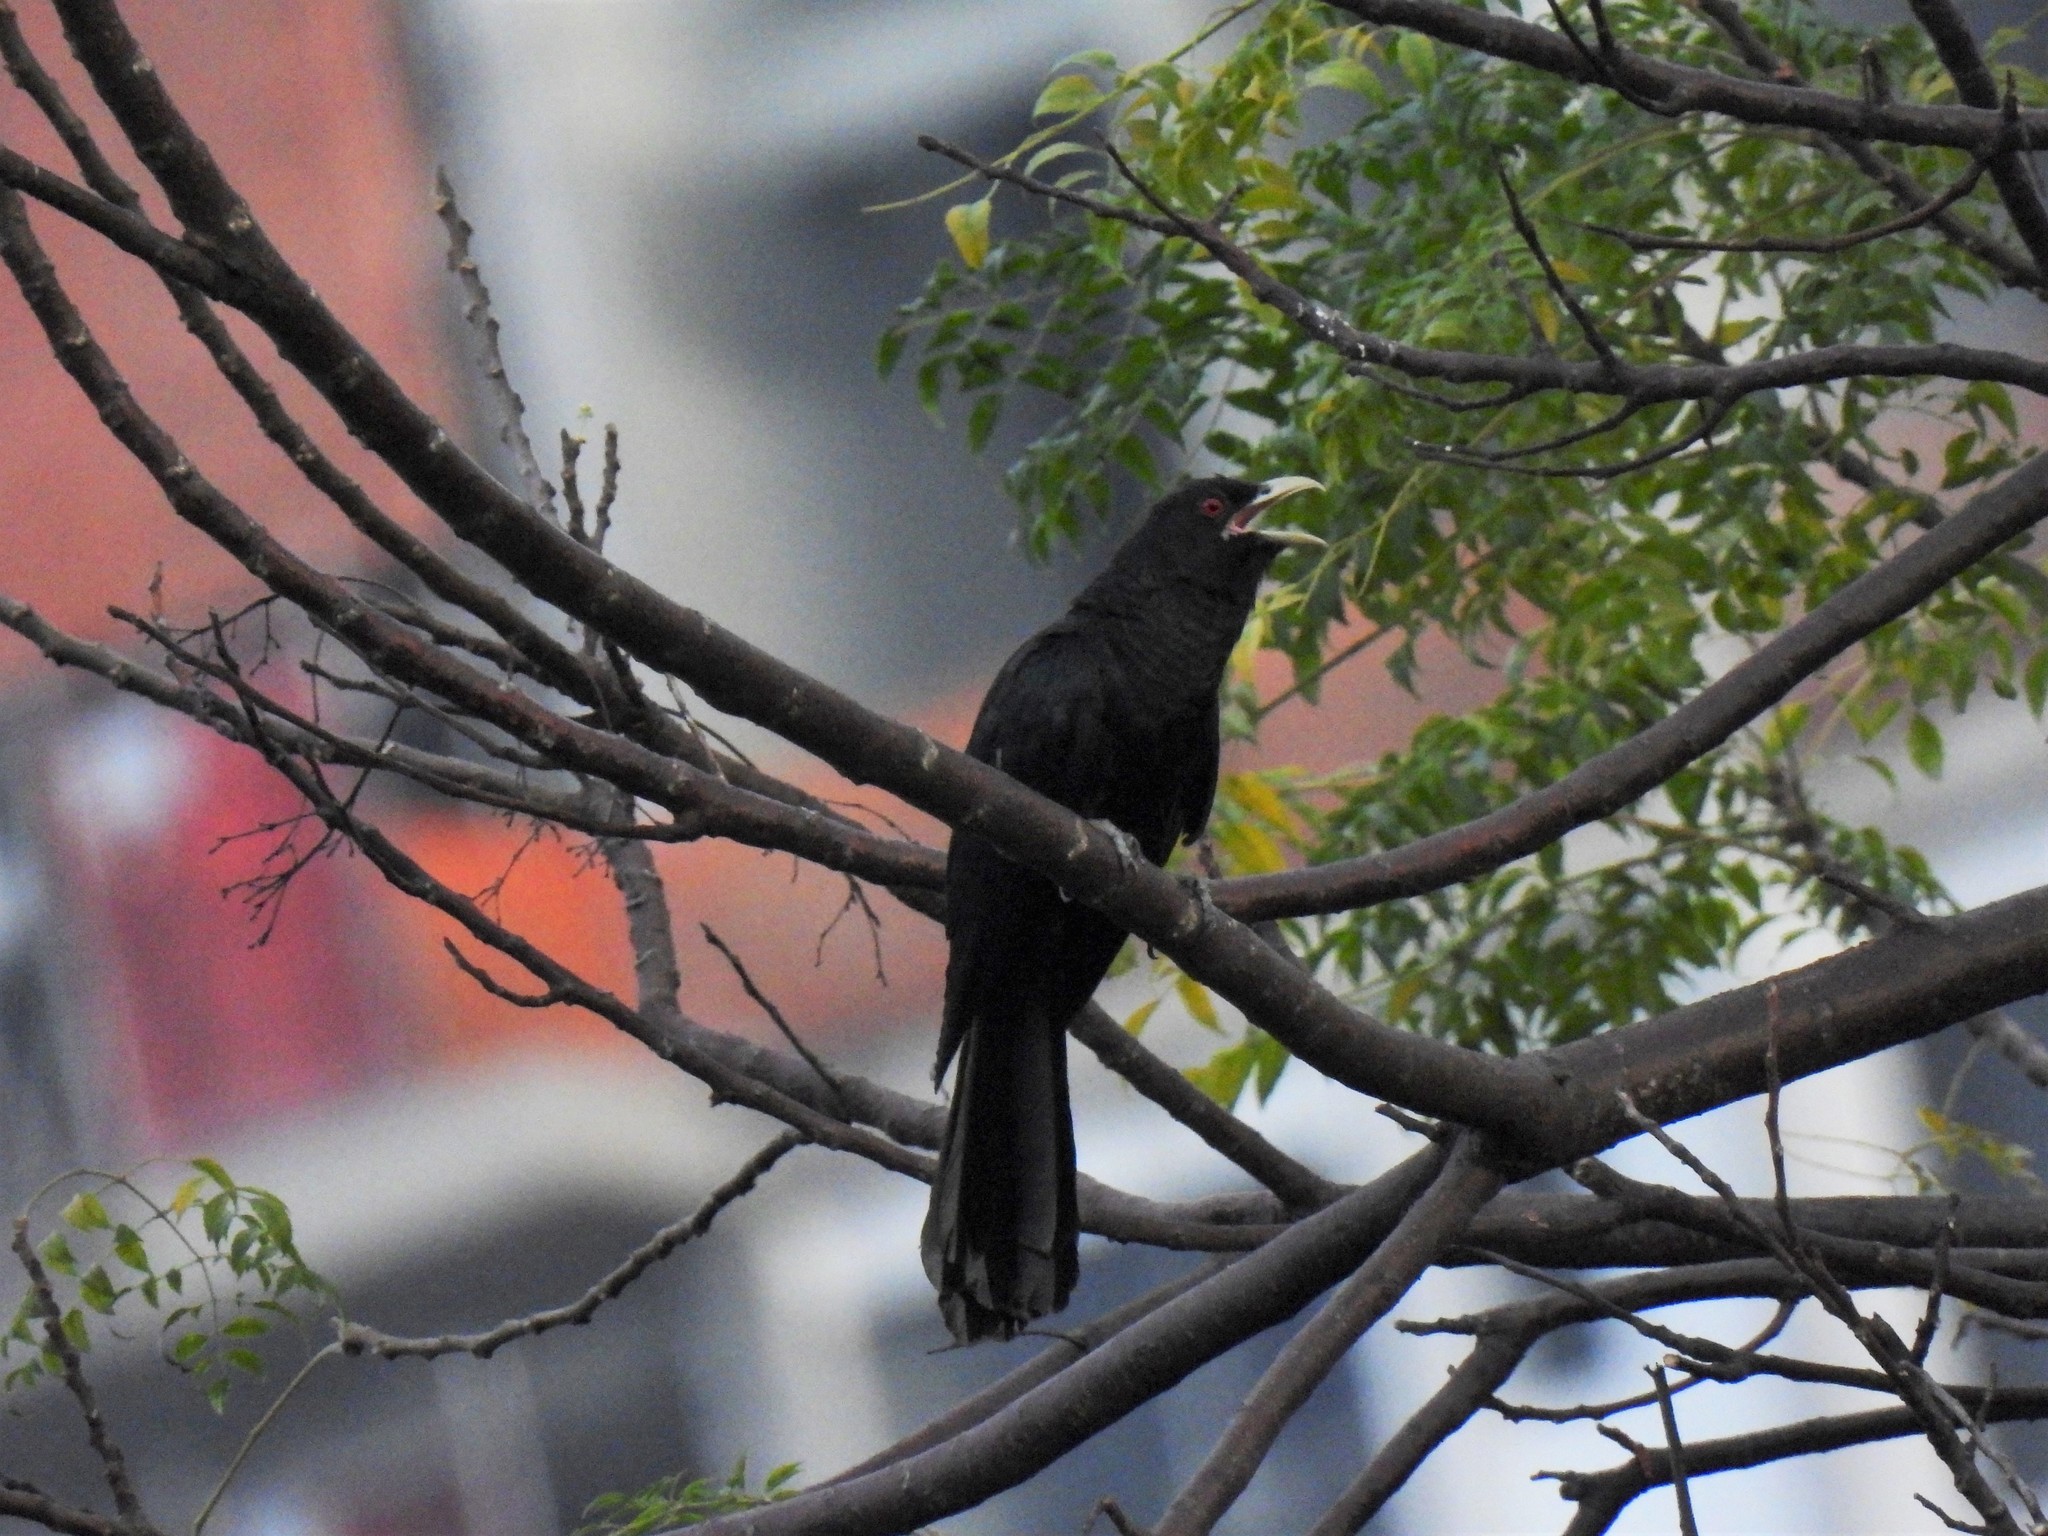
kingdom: Animalia
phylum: Chordata
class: Aves
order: Cuculiformes
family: Cuculidae
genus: Eudynamys
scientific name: Eudynamys scolopaceus
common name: Asian koel
